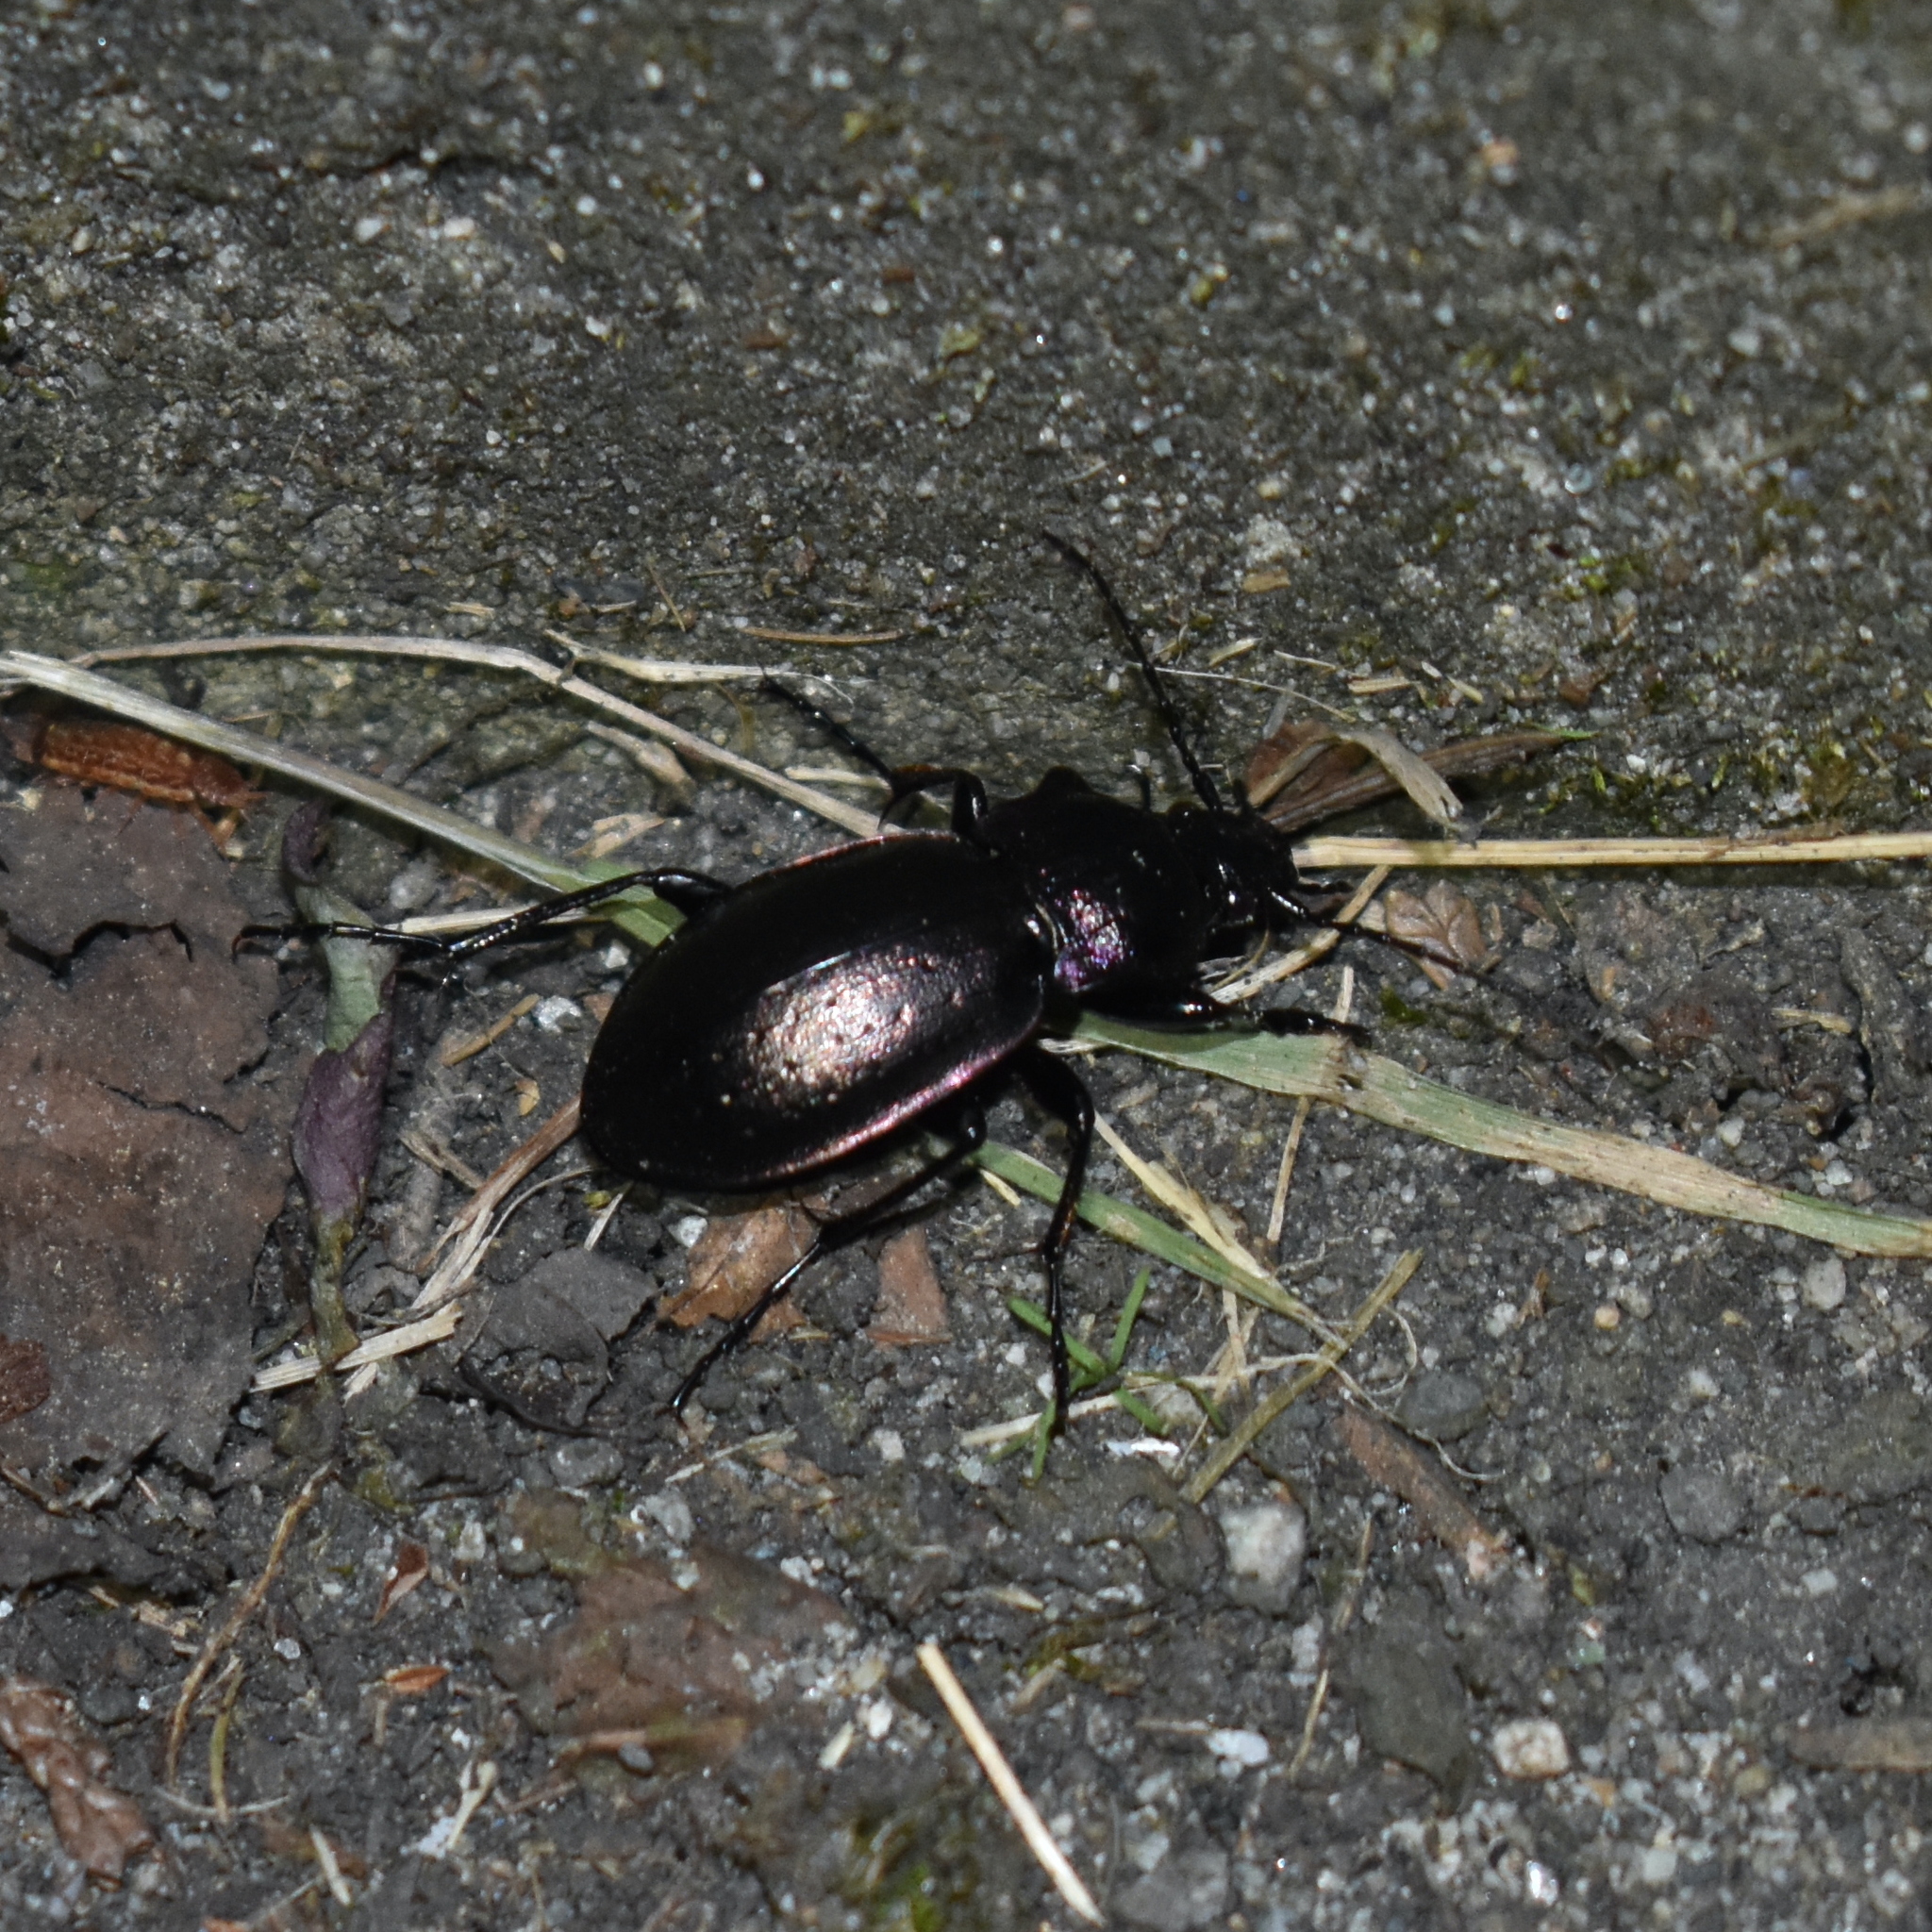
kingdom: Animalia
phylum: Arthropoda
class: Insecta
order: Coleoptera
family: Carabidae
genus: Carabus
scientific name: Carabus nemoralis
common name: European ground beetle
